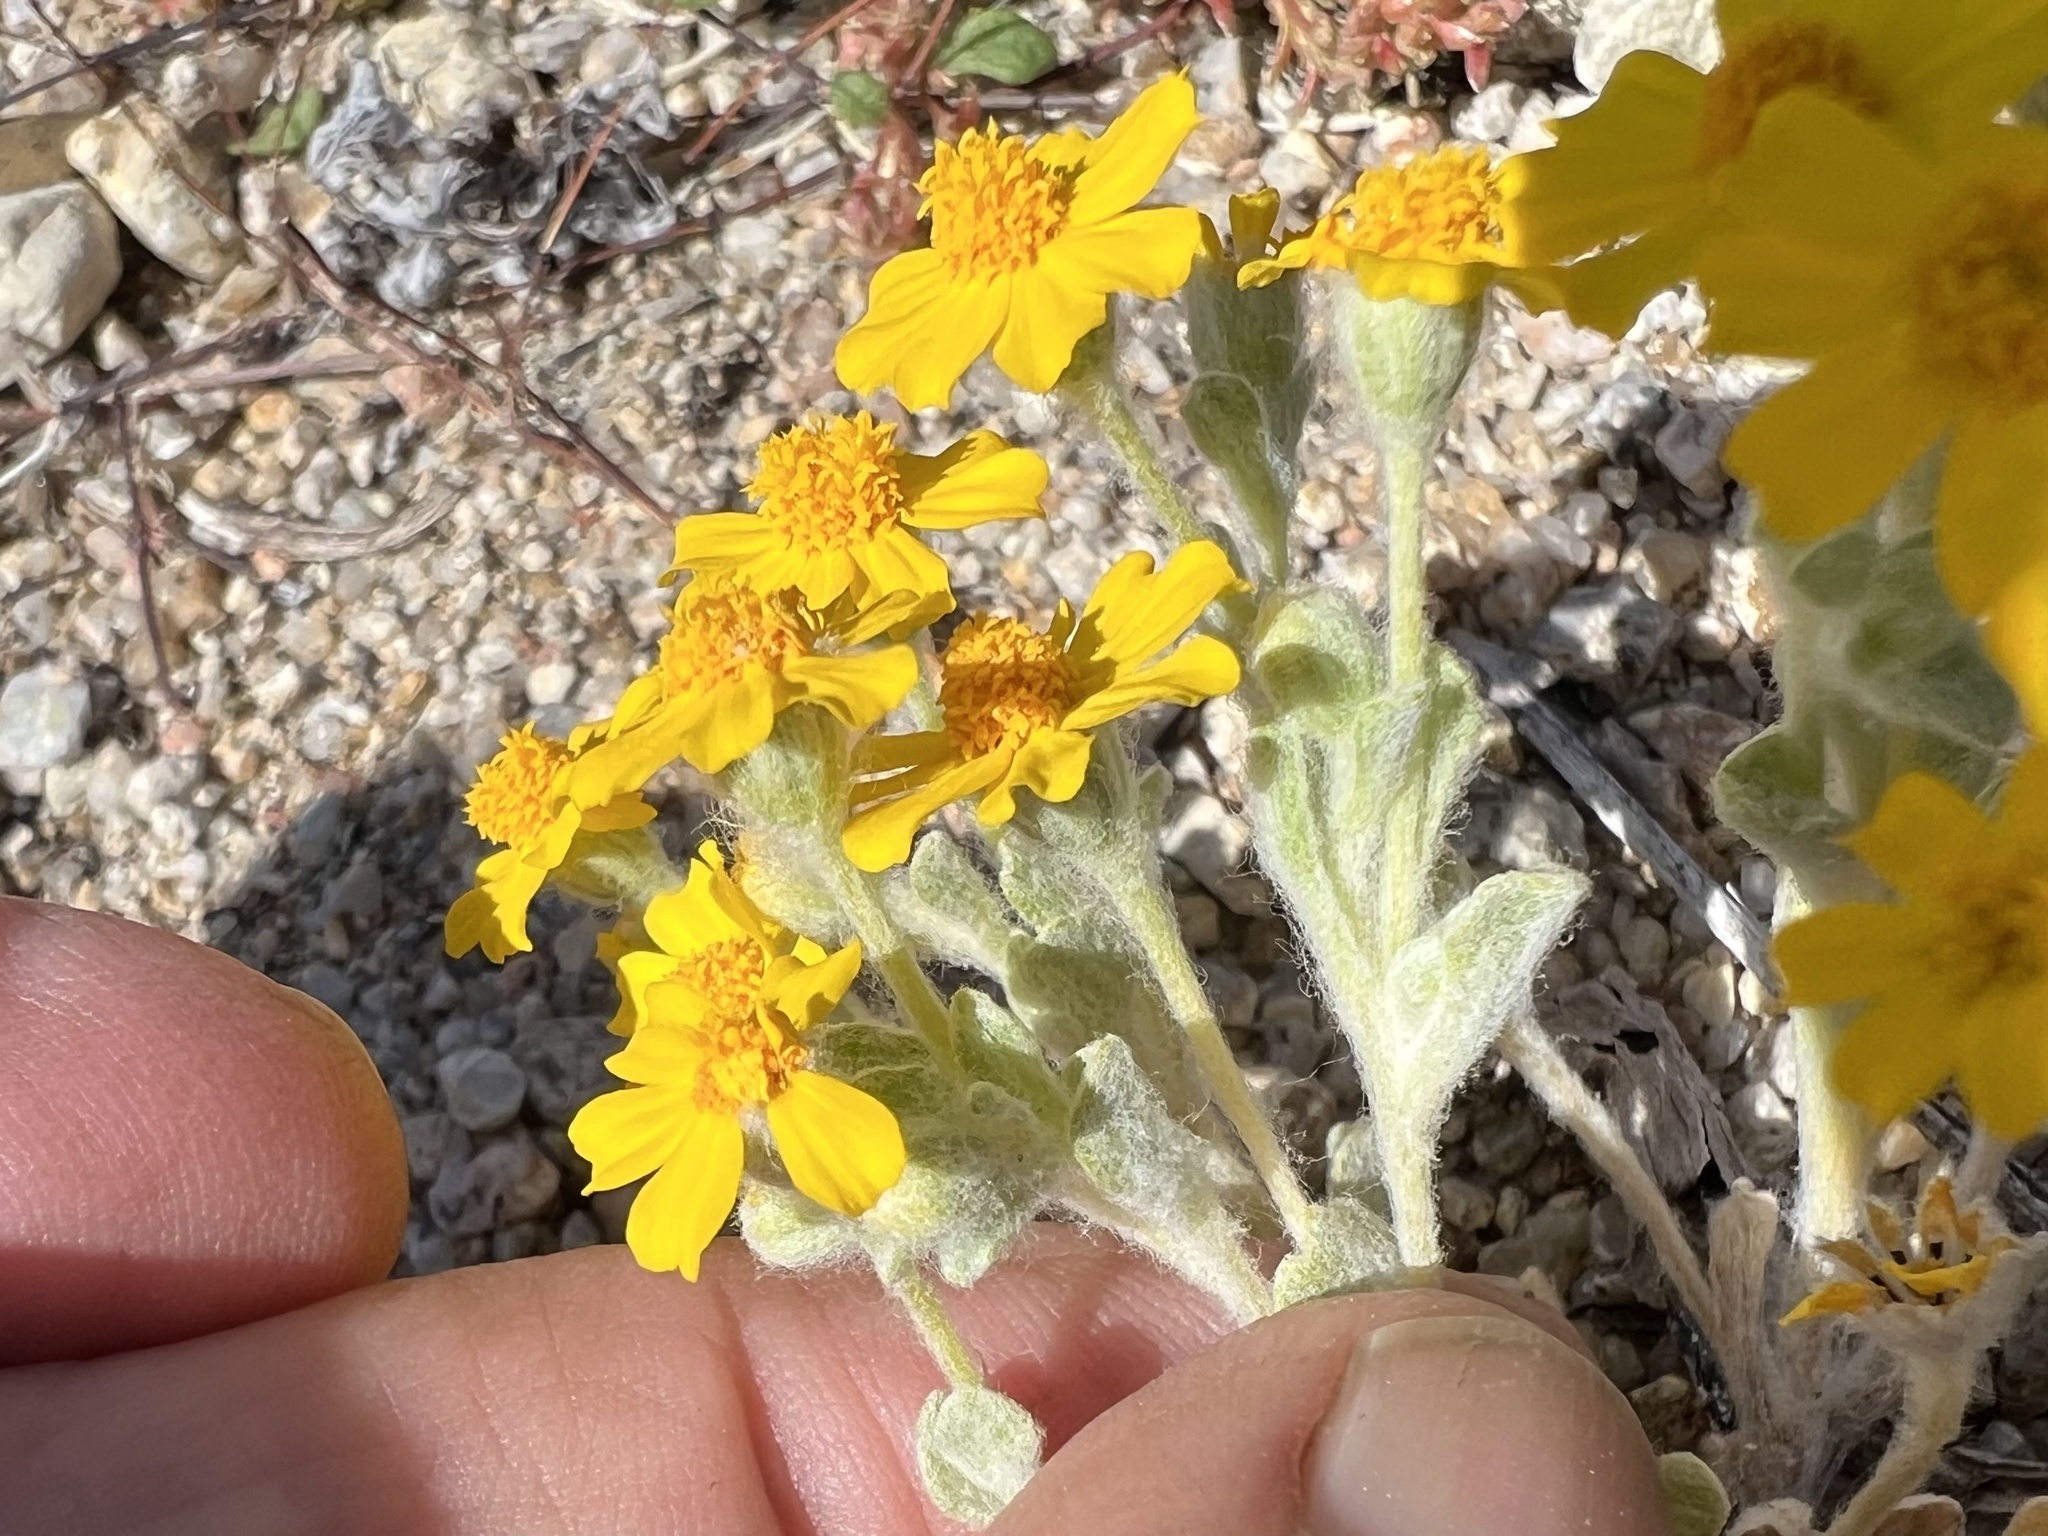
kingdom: Plantae
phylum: Tracheophyta
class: Magnoliopsida
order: Asterales
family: Asteraceae
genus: Eriophyllum
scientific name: Eriophyllum wallacei
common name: Wallace's woolly daisy
